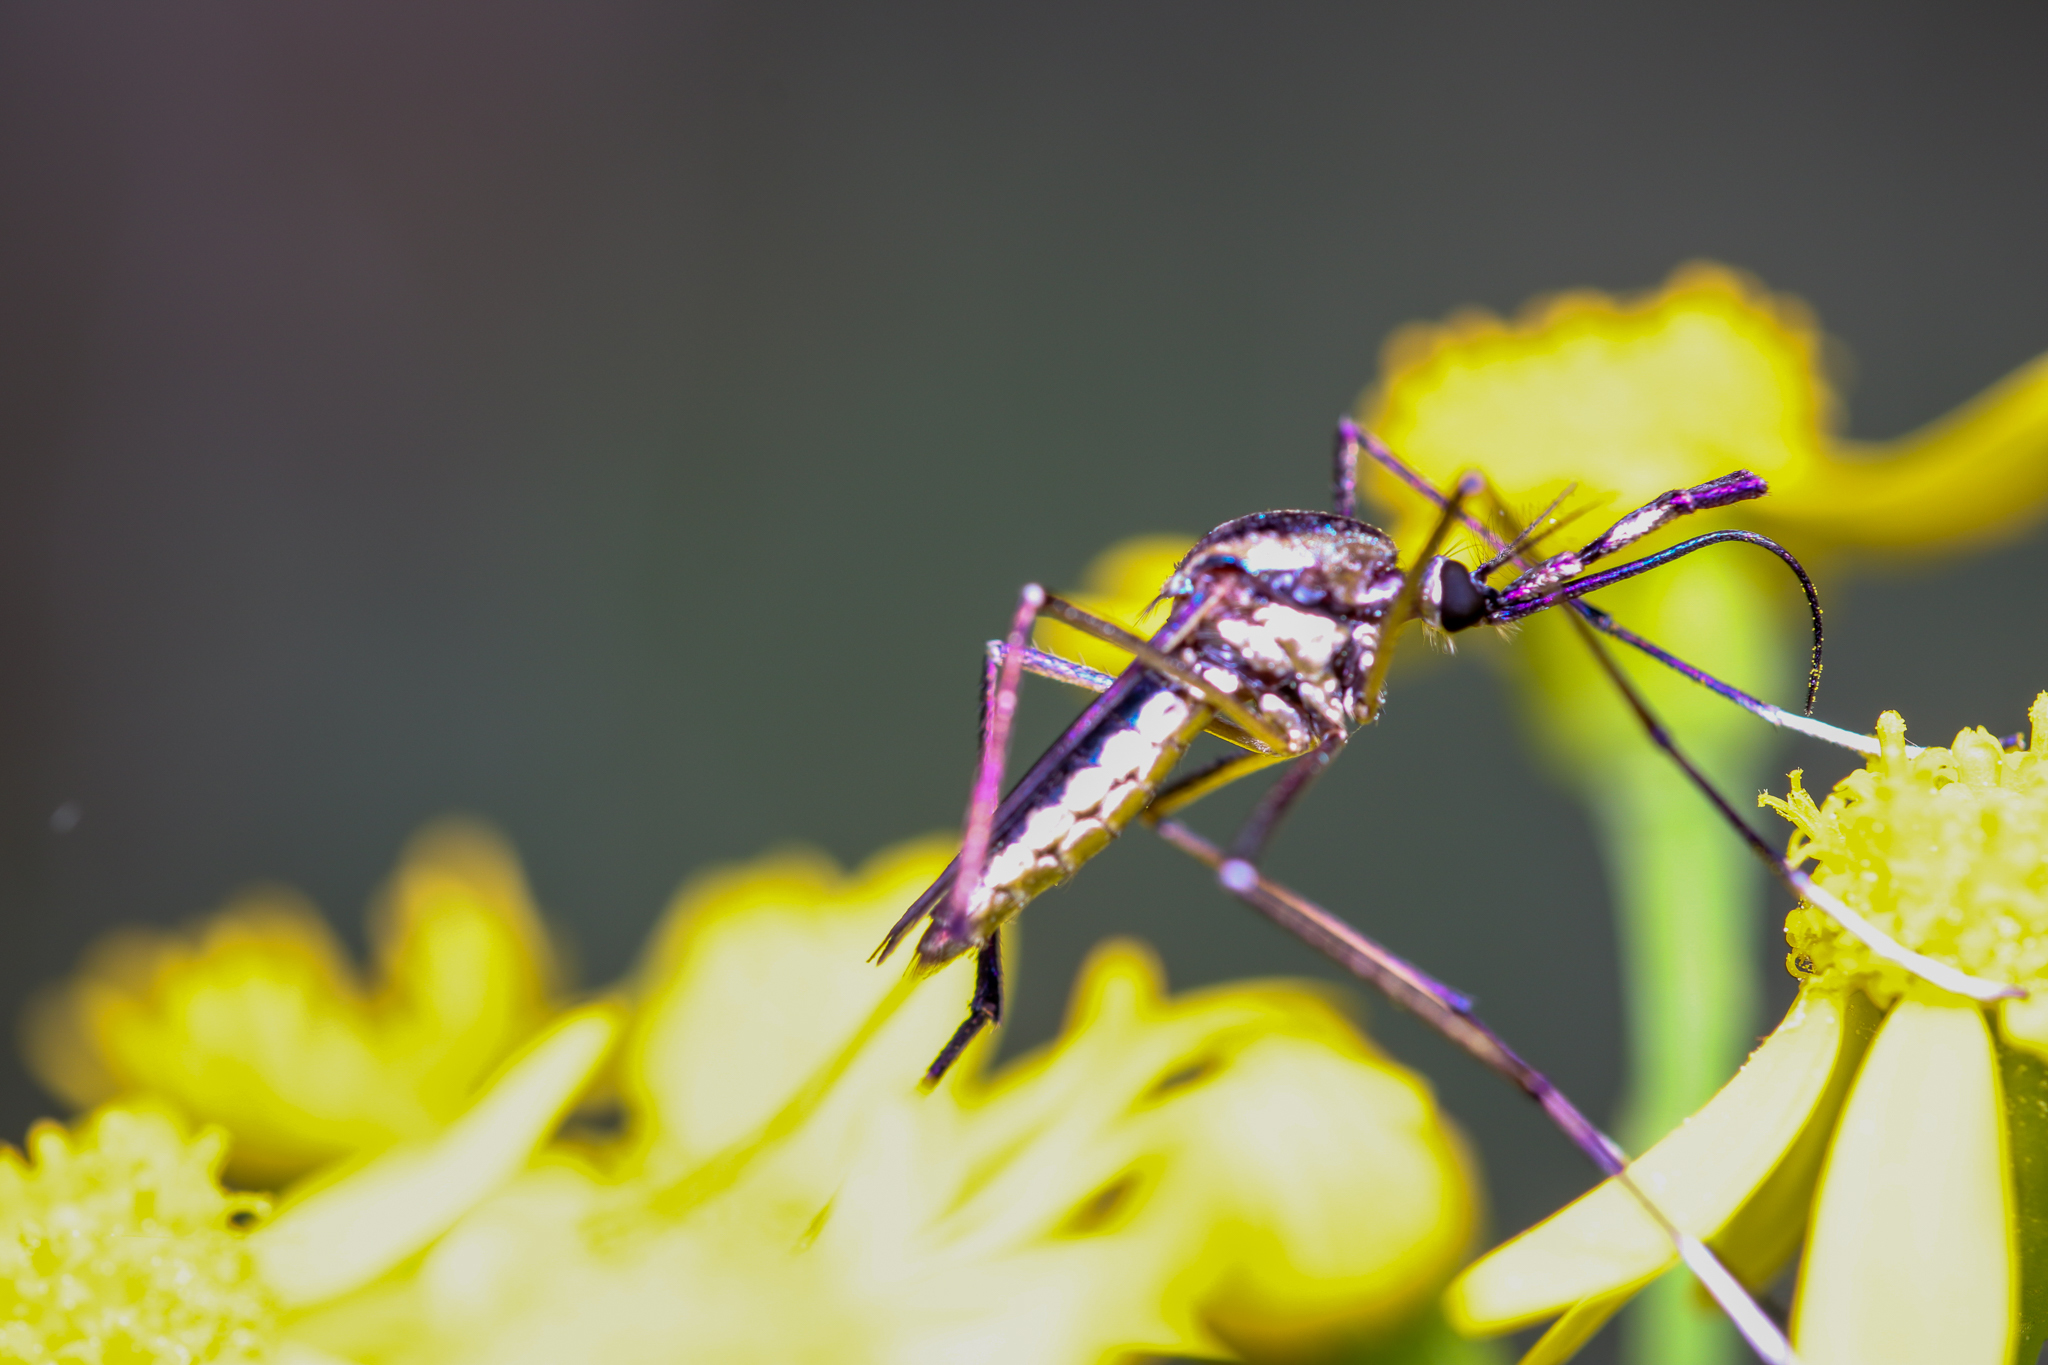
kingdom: Animalia
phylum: Arthropoda
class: Insecta
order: Diptera
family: Culicidae
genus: Toxorhynchites
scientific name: Toxorhynchites rutilus
